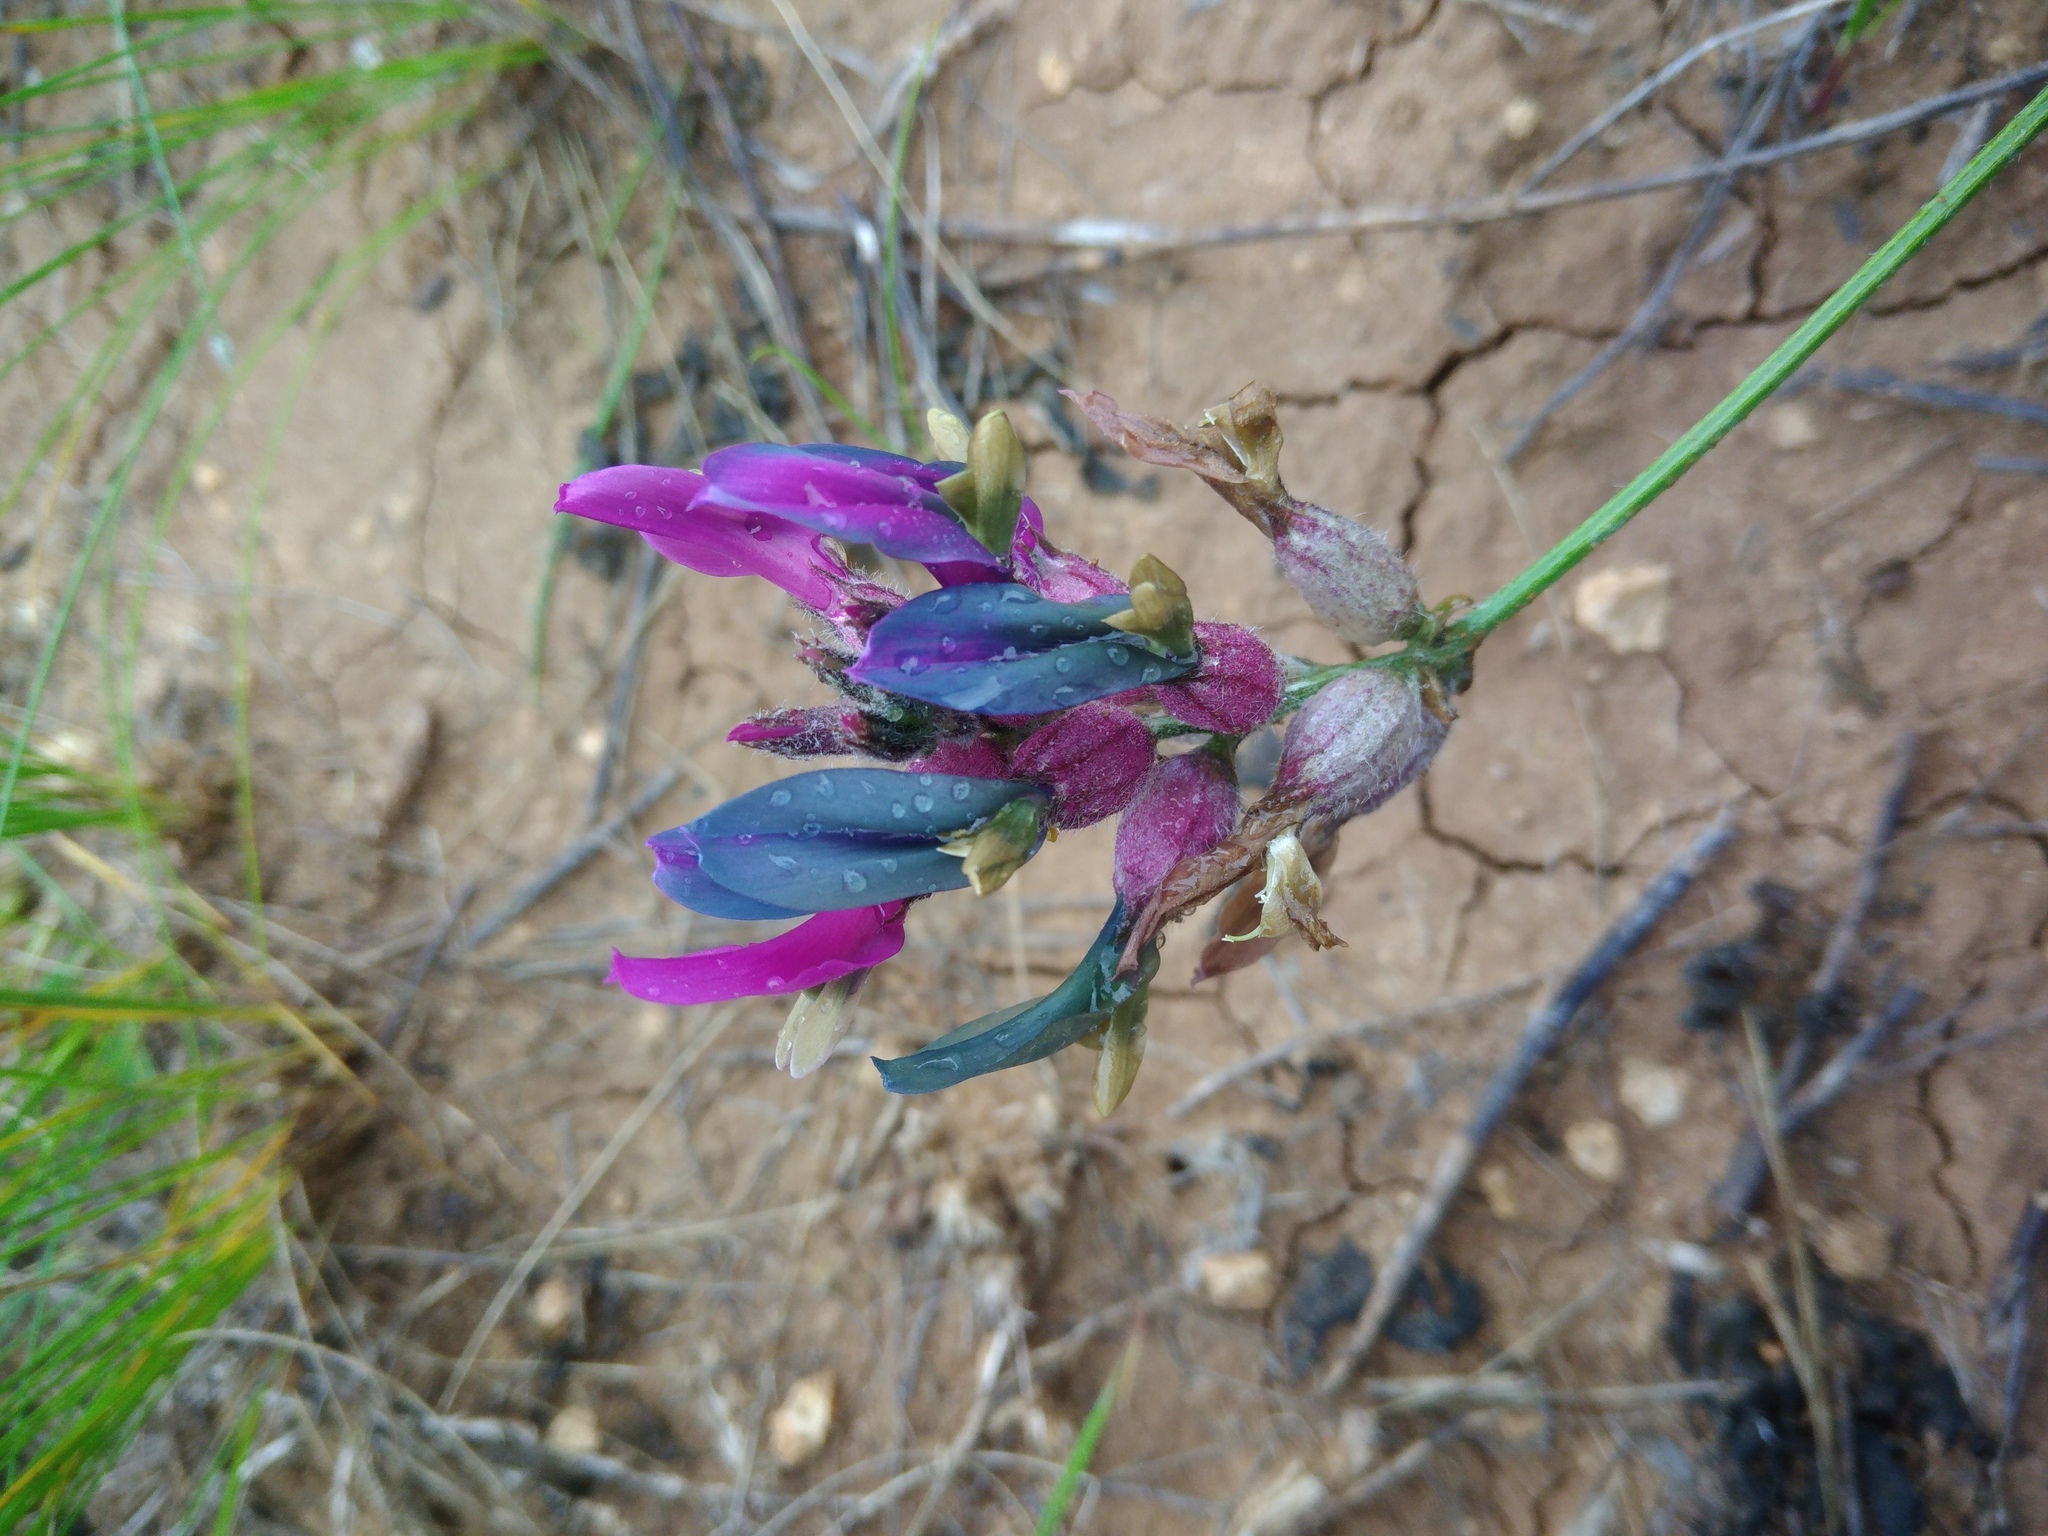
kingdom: Plantae
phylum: Tracheophyta
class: Magnoliopsida
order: Fabales
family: Fabaceae
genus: Astragalus
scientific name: Astragalus vesicarius
